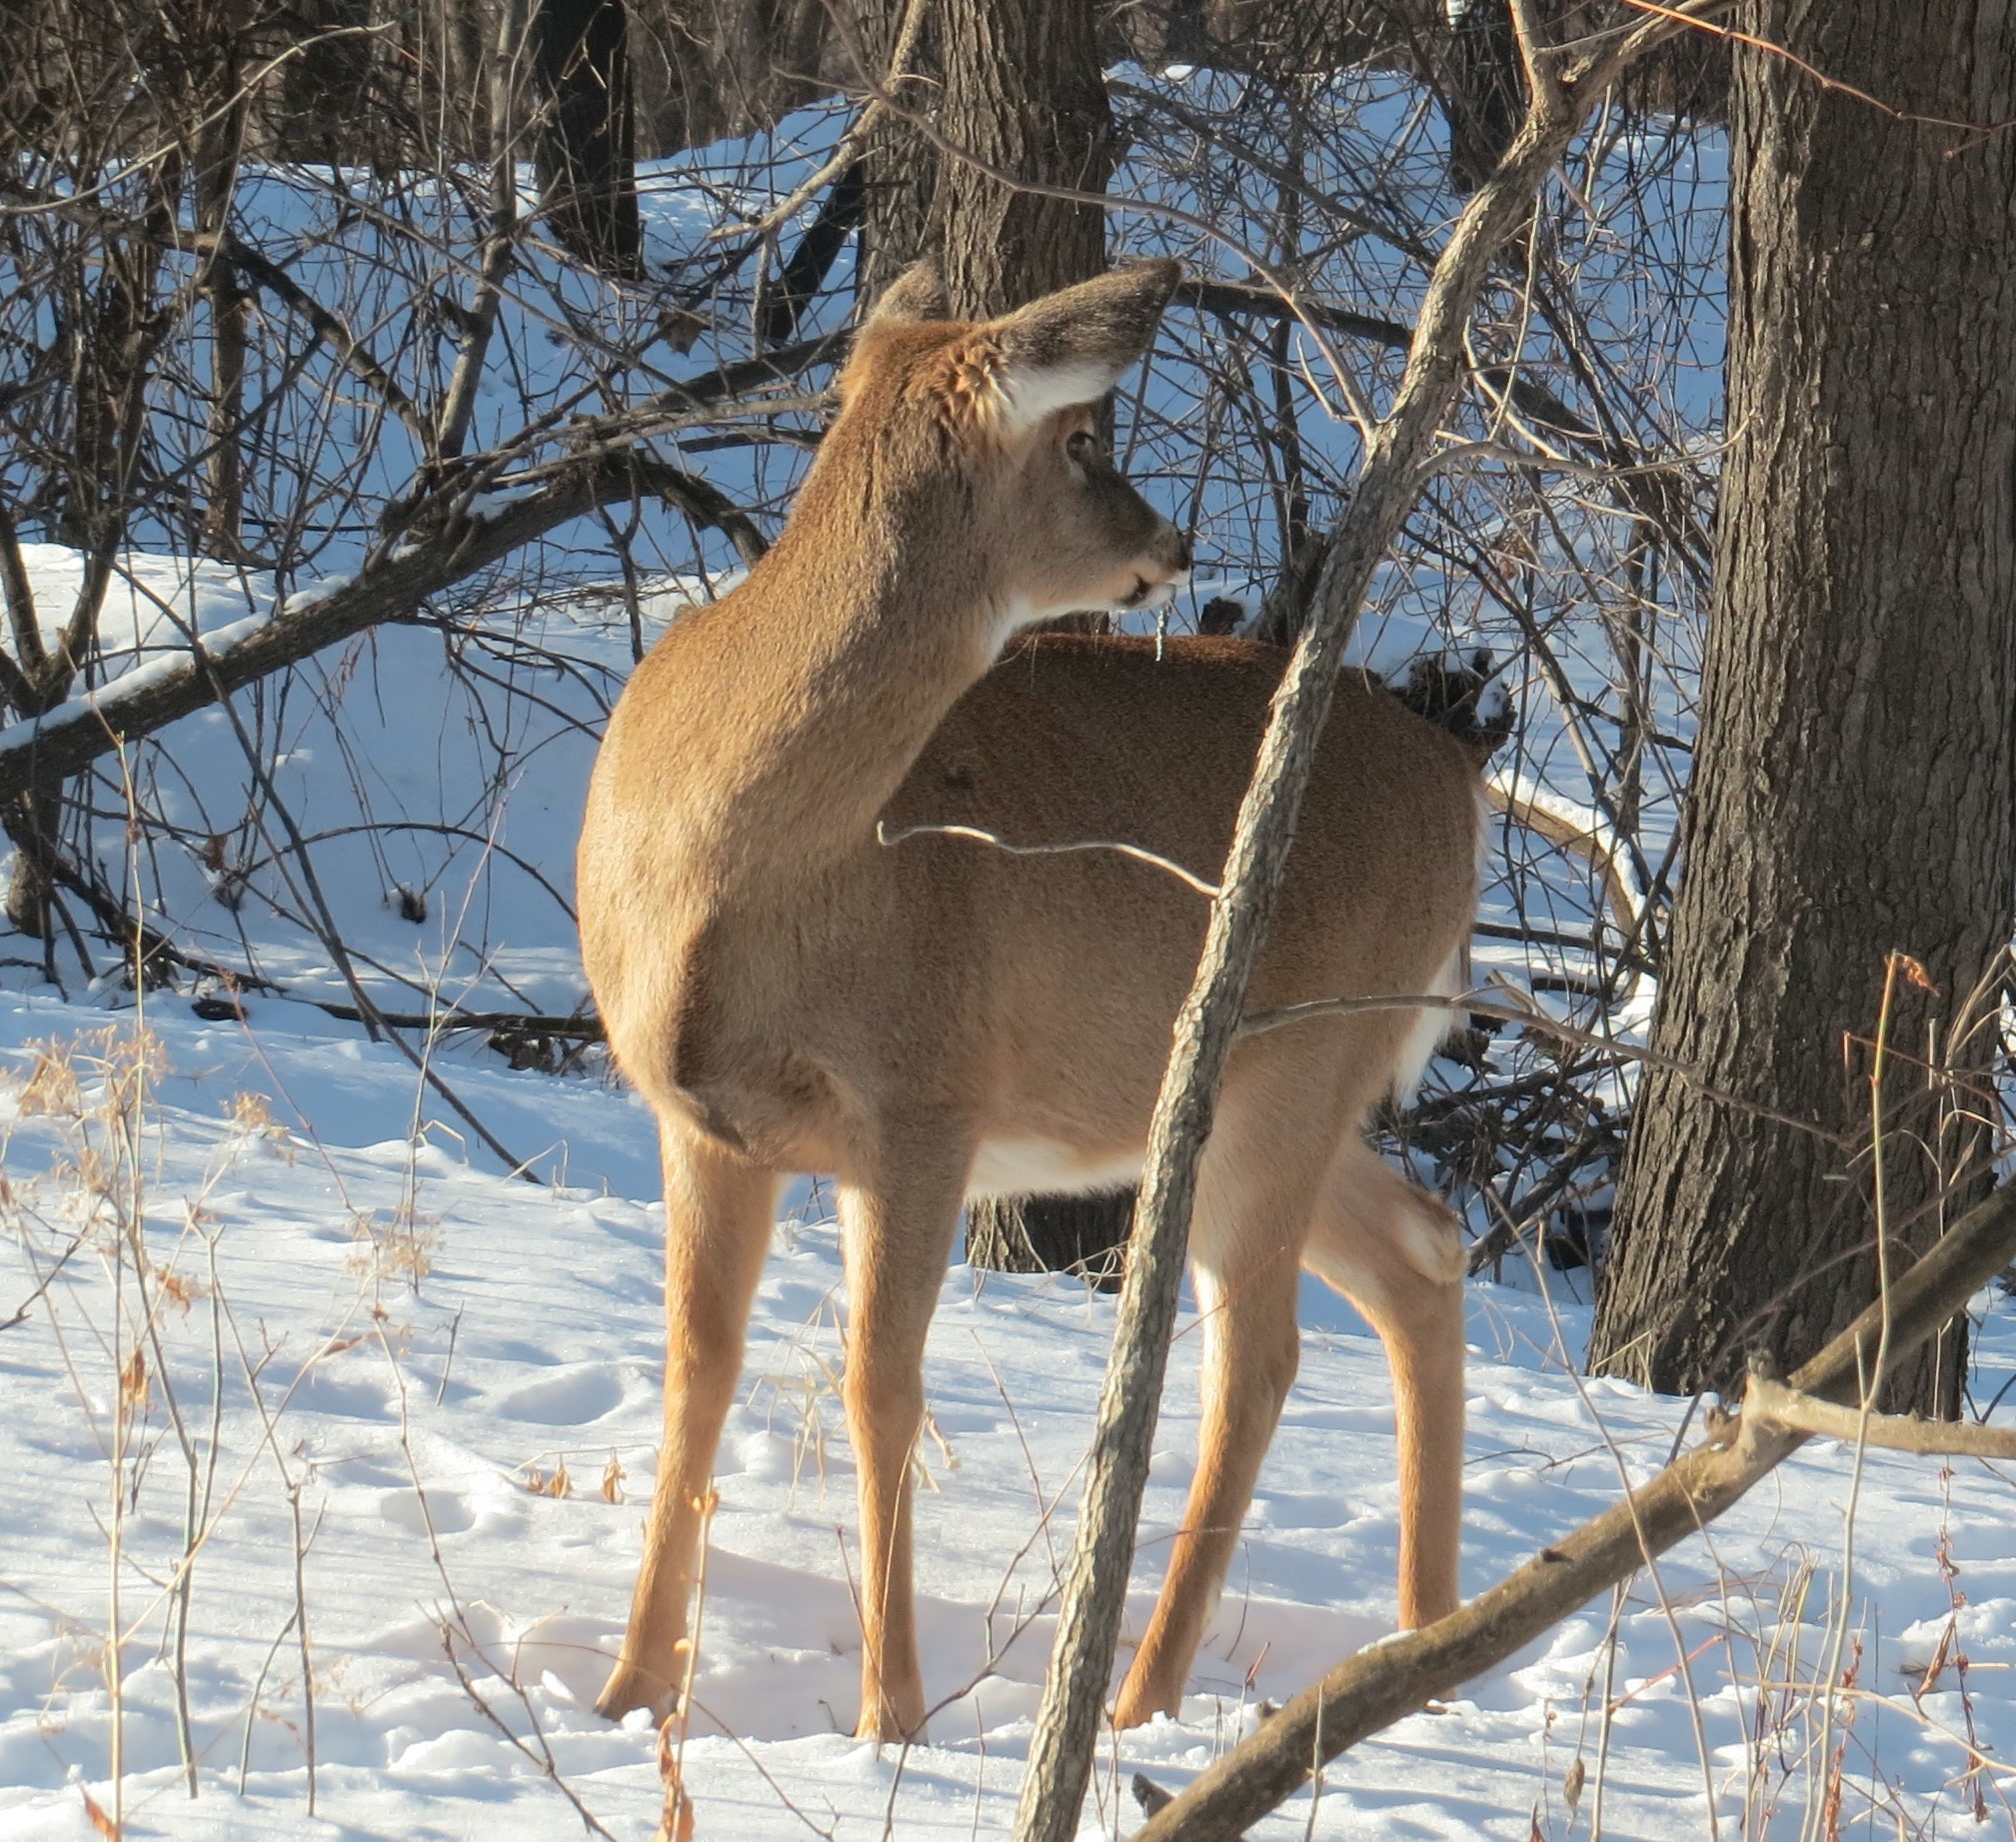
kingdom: Animalia
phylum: Chordata
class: Mammalia
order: Artiodactyla
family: Cervidae
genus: Odocoileus
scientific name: Odocoileus virginianus
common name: White-tailed deer
